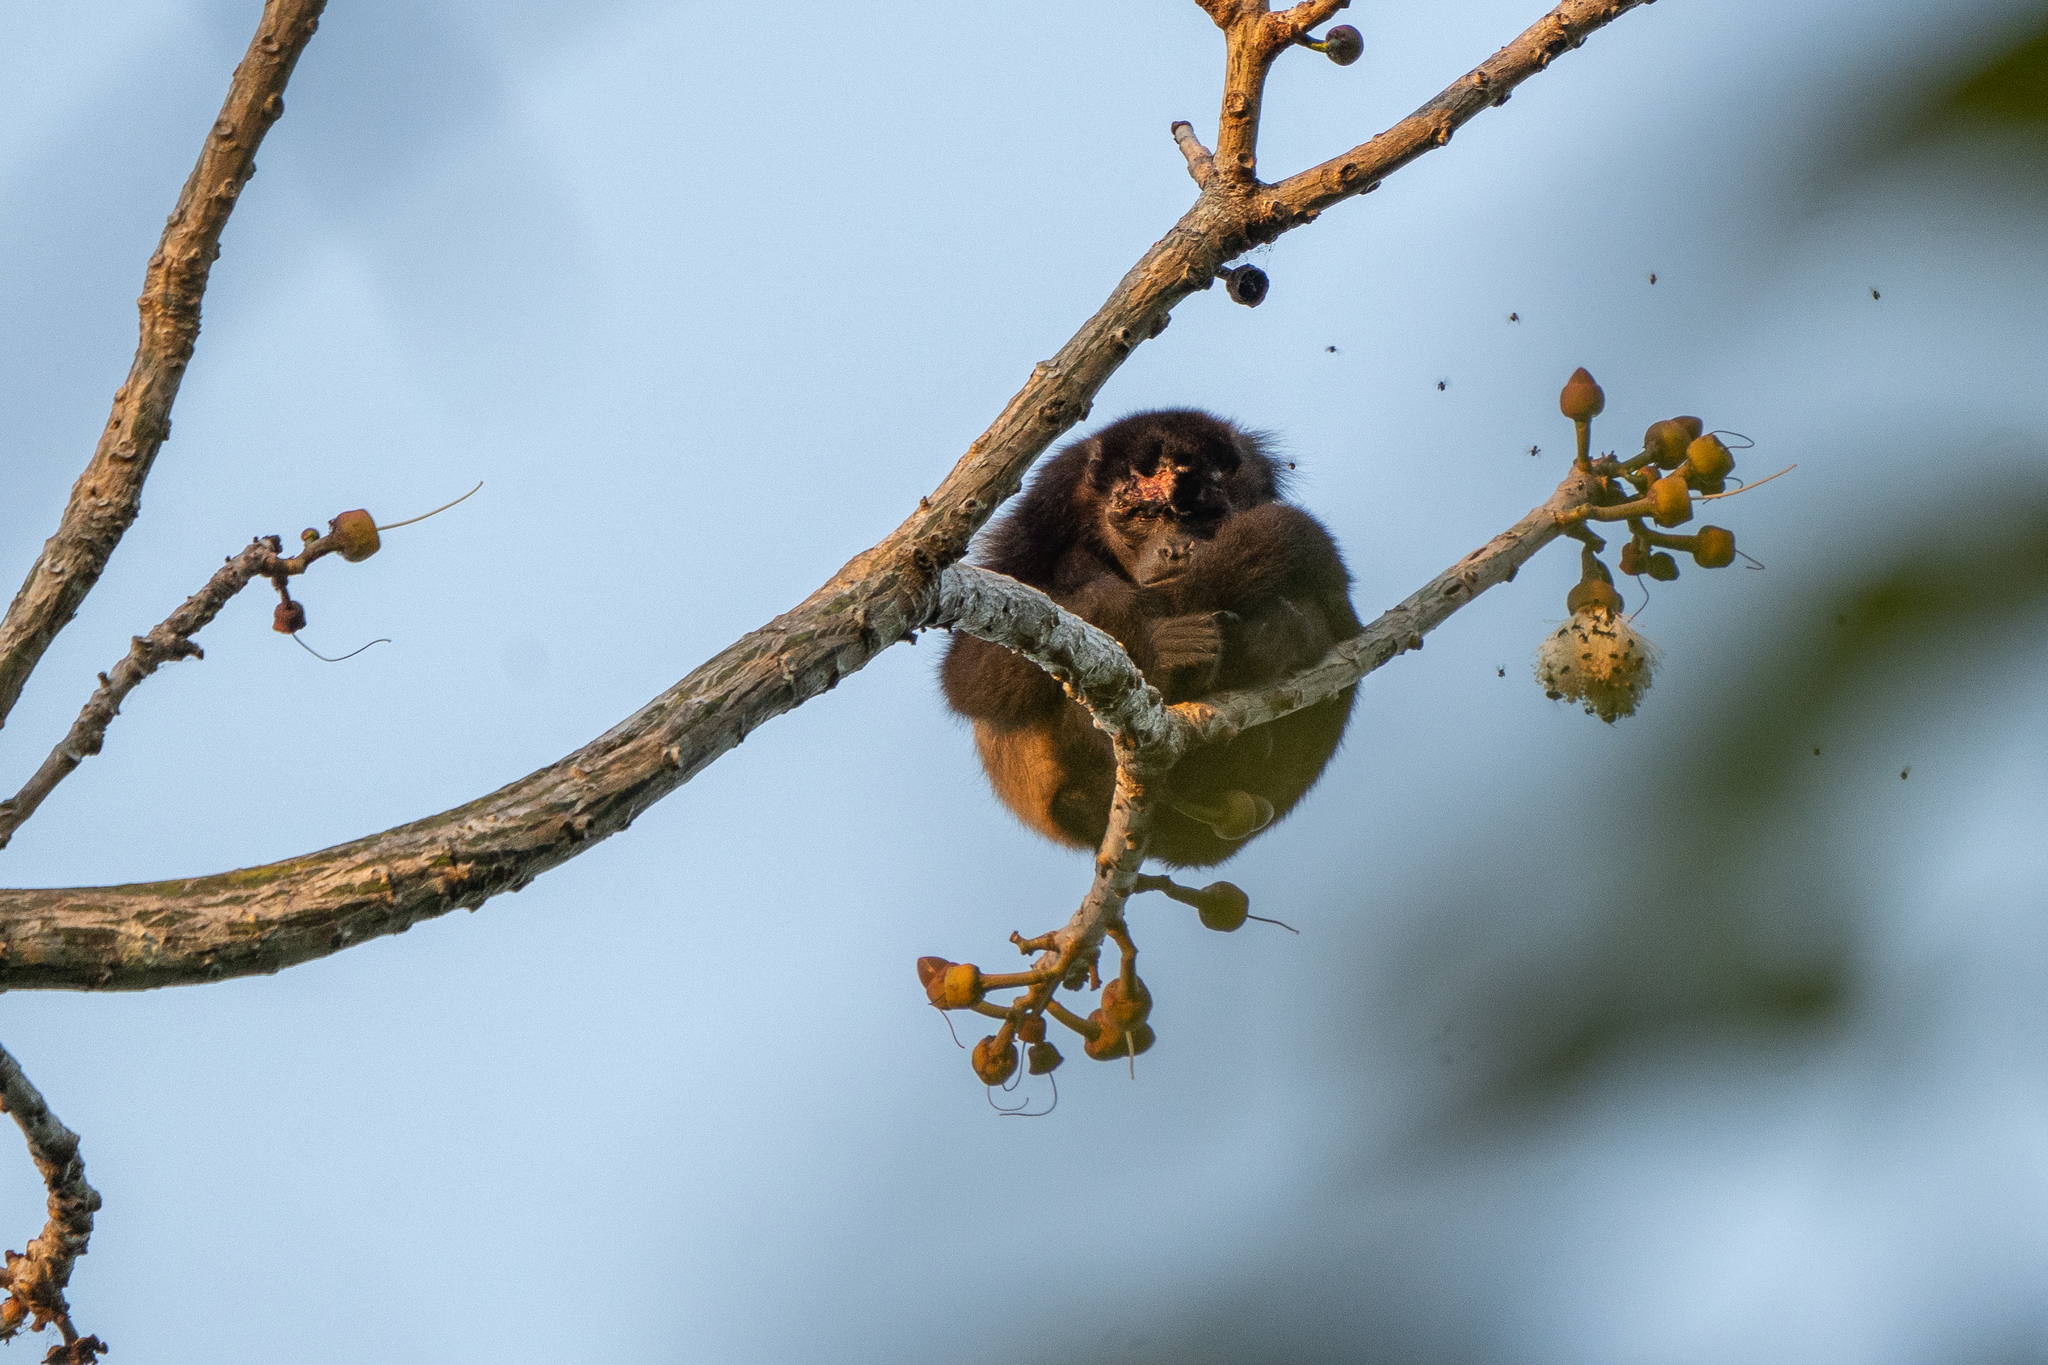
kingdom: Animalia
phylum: Chordata
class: Mammalia
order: Primates
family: Atelidae
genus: Alouatta
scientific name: Alouatta palliata
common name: Mantled howler
